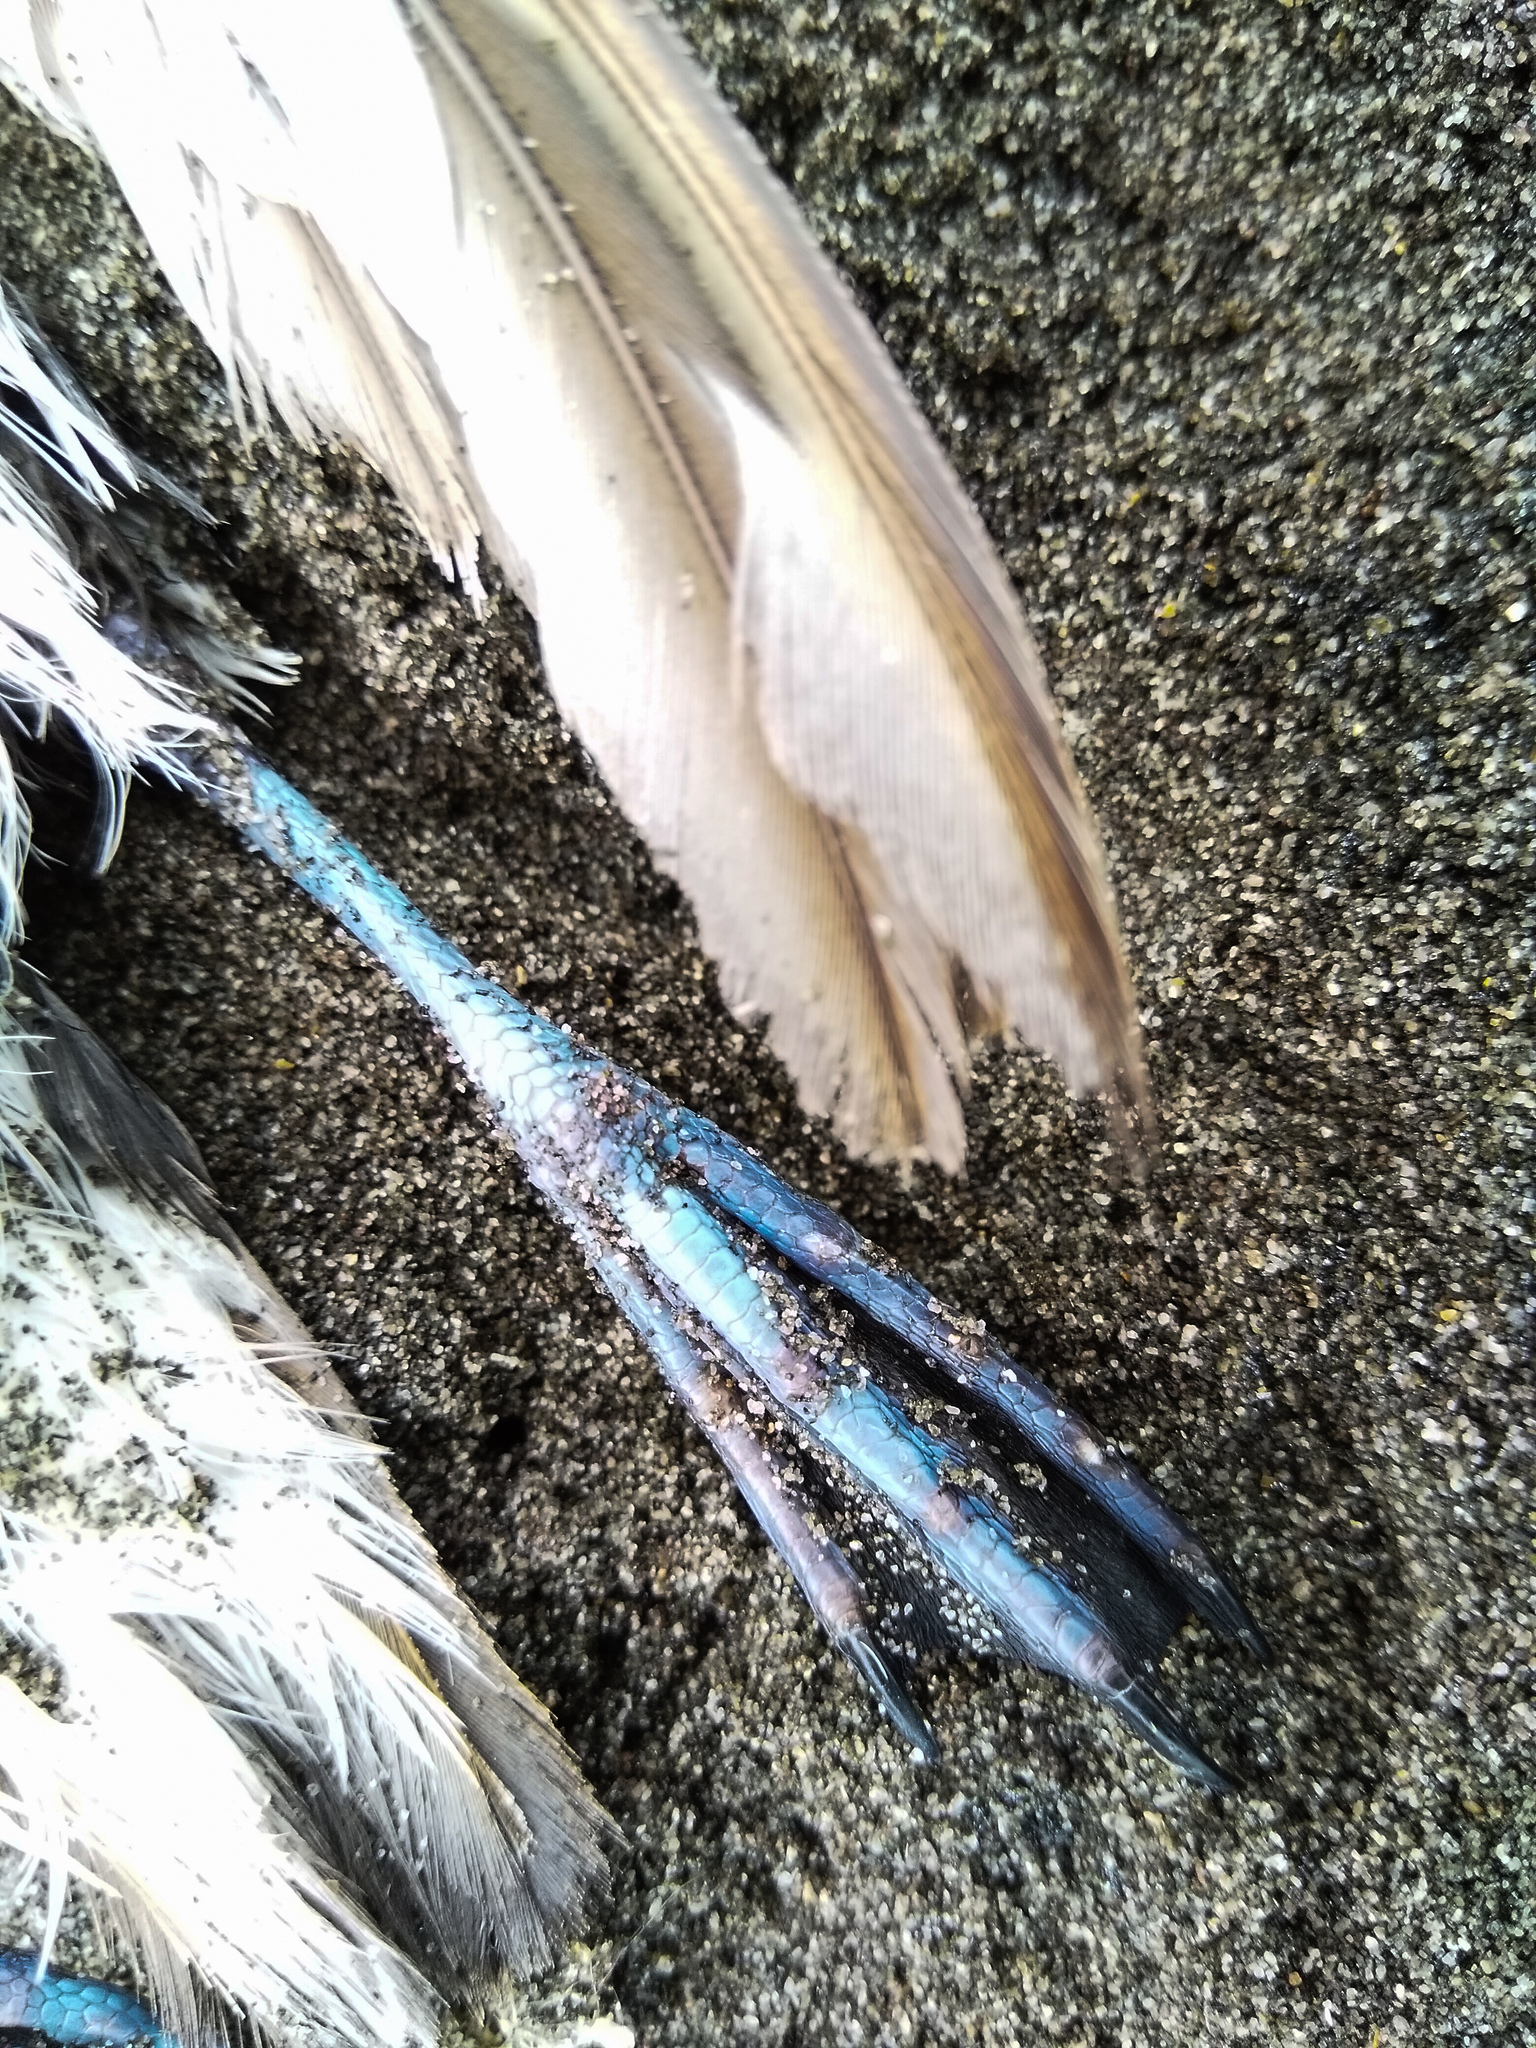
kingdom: Animalia
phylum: Chordata
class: Aves
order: Procellariiformes
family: Pelecanoididae
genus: Pelecanoides
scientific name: Pelecanoides urinatrix
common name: Common diving-petrel
